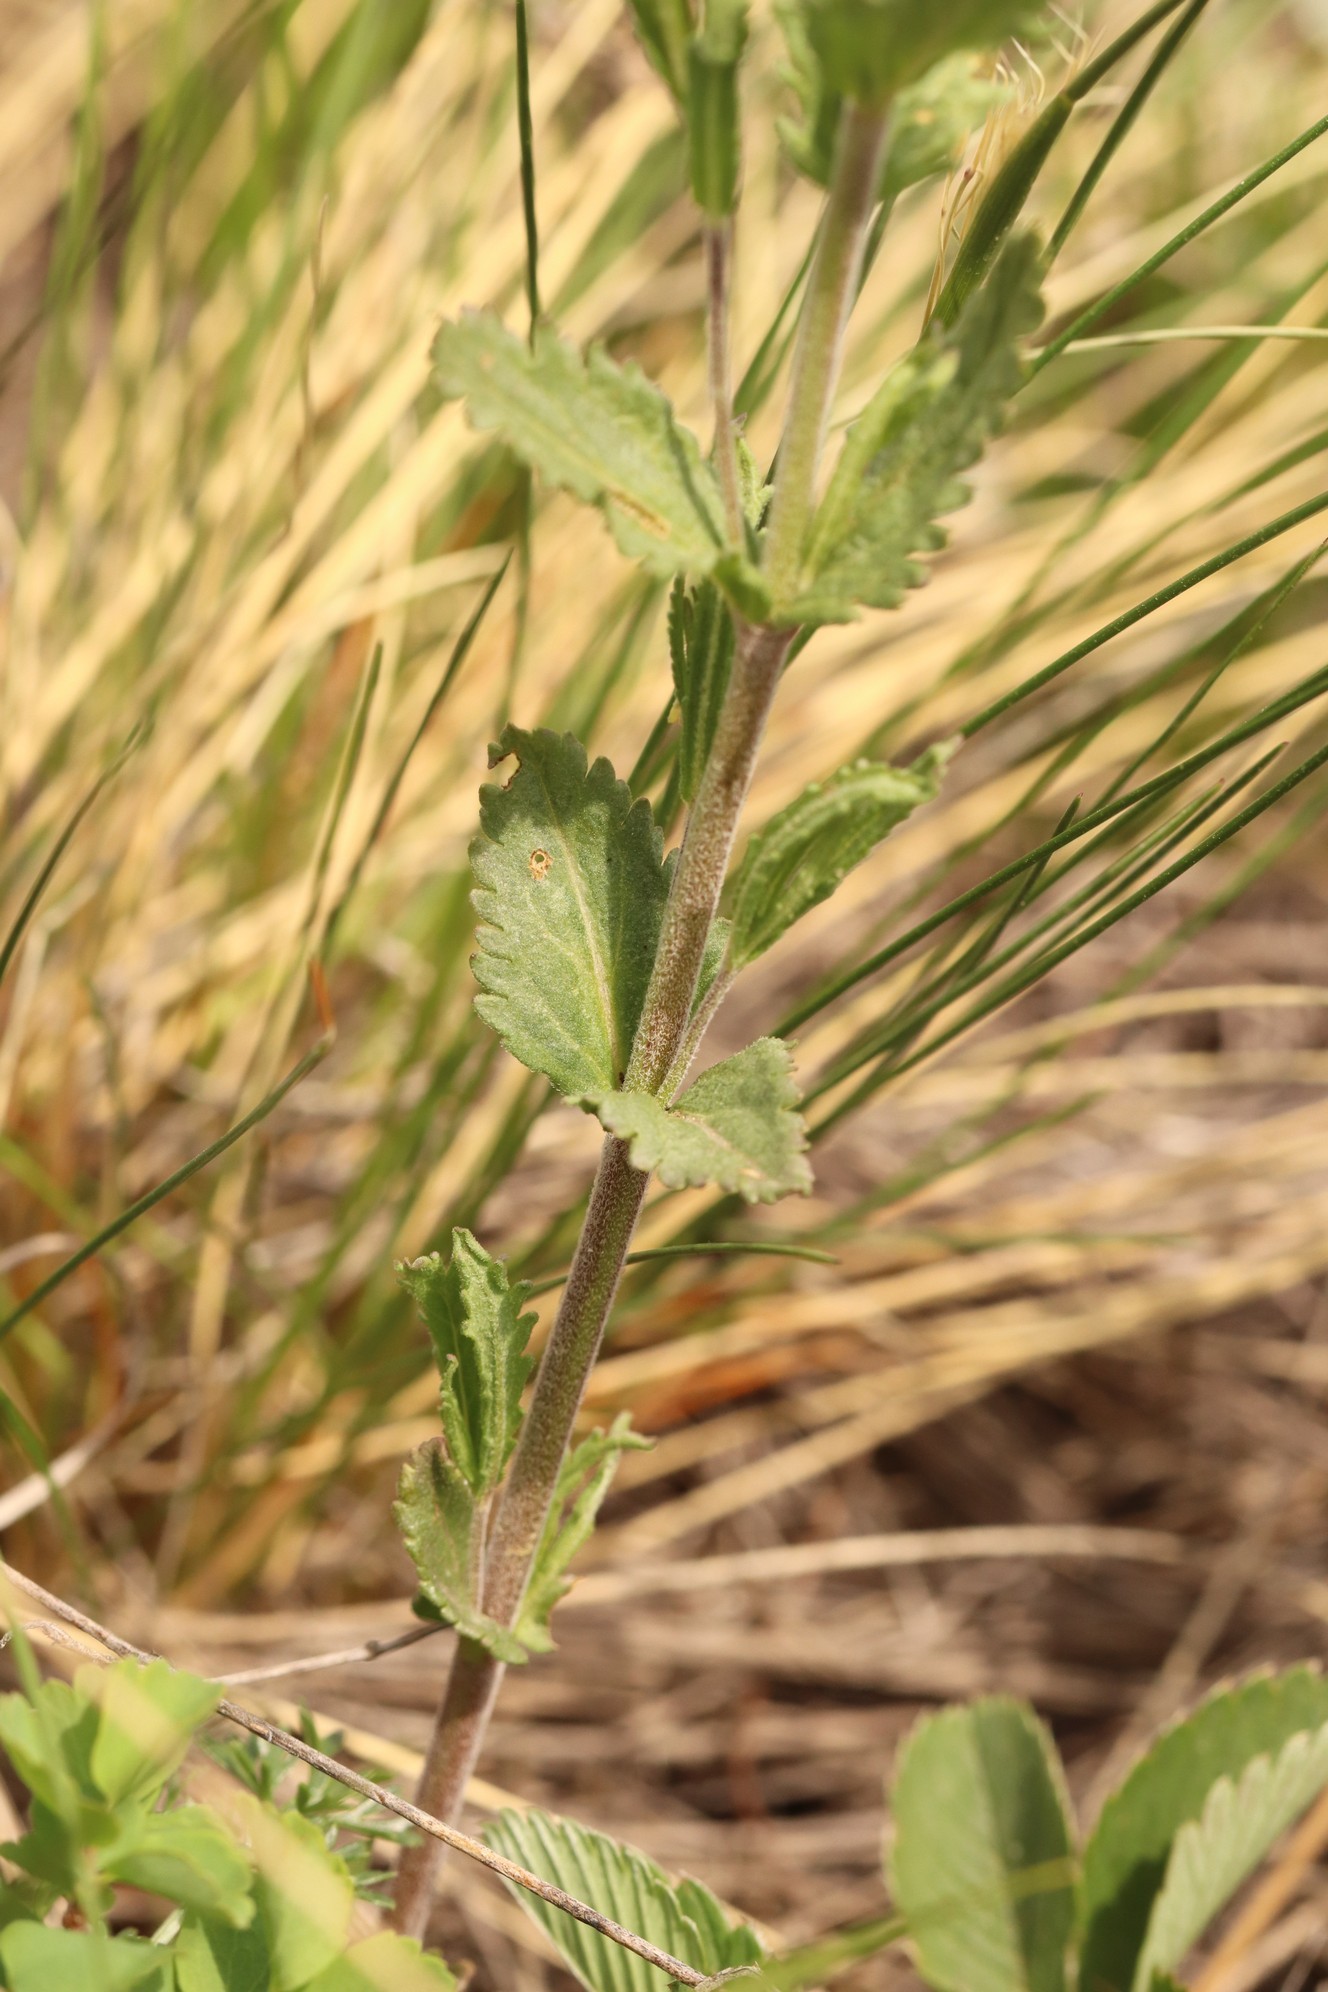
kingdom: Plantae
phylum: Tracheophyta
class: Magnoliopsida
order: Lamiales
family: Plantaginaceae
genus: Veronica
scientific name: Veronica krylovii
